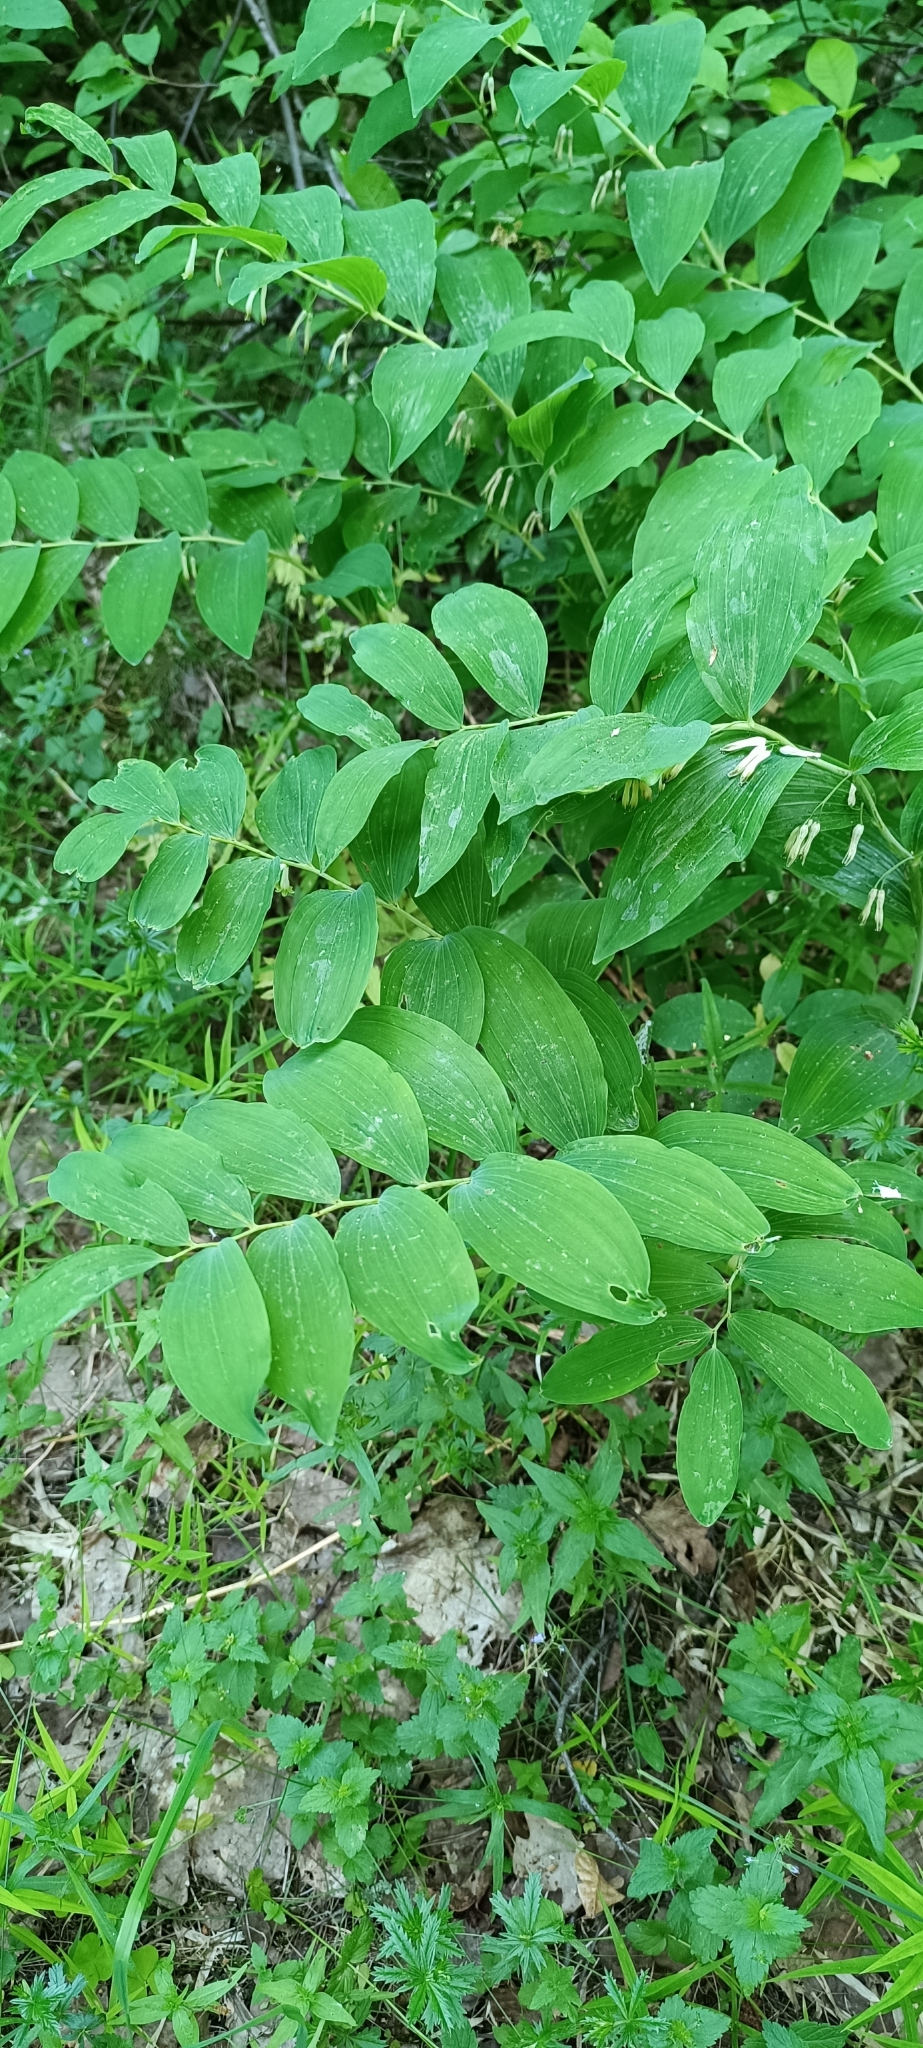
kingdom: Plantae
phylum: Tracheophyta
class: Liliopsida
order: Asparagales
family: Asparagaceae
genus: Polygonatum
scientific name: Polygonatum multiflorum
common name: Solomon's-seal
